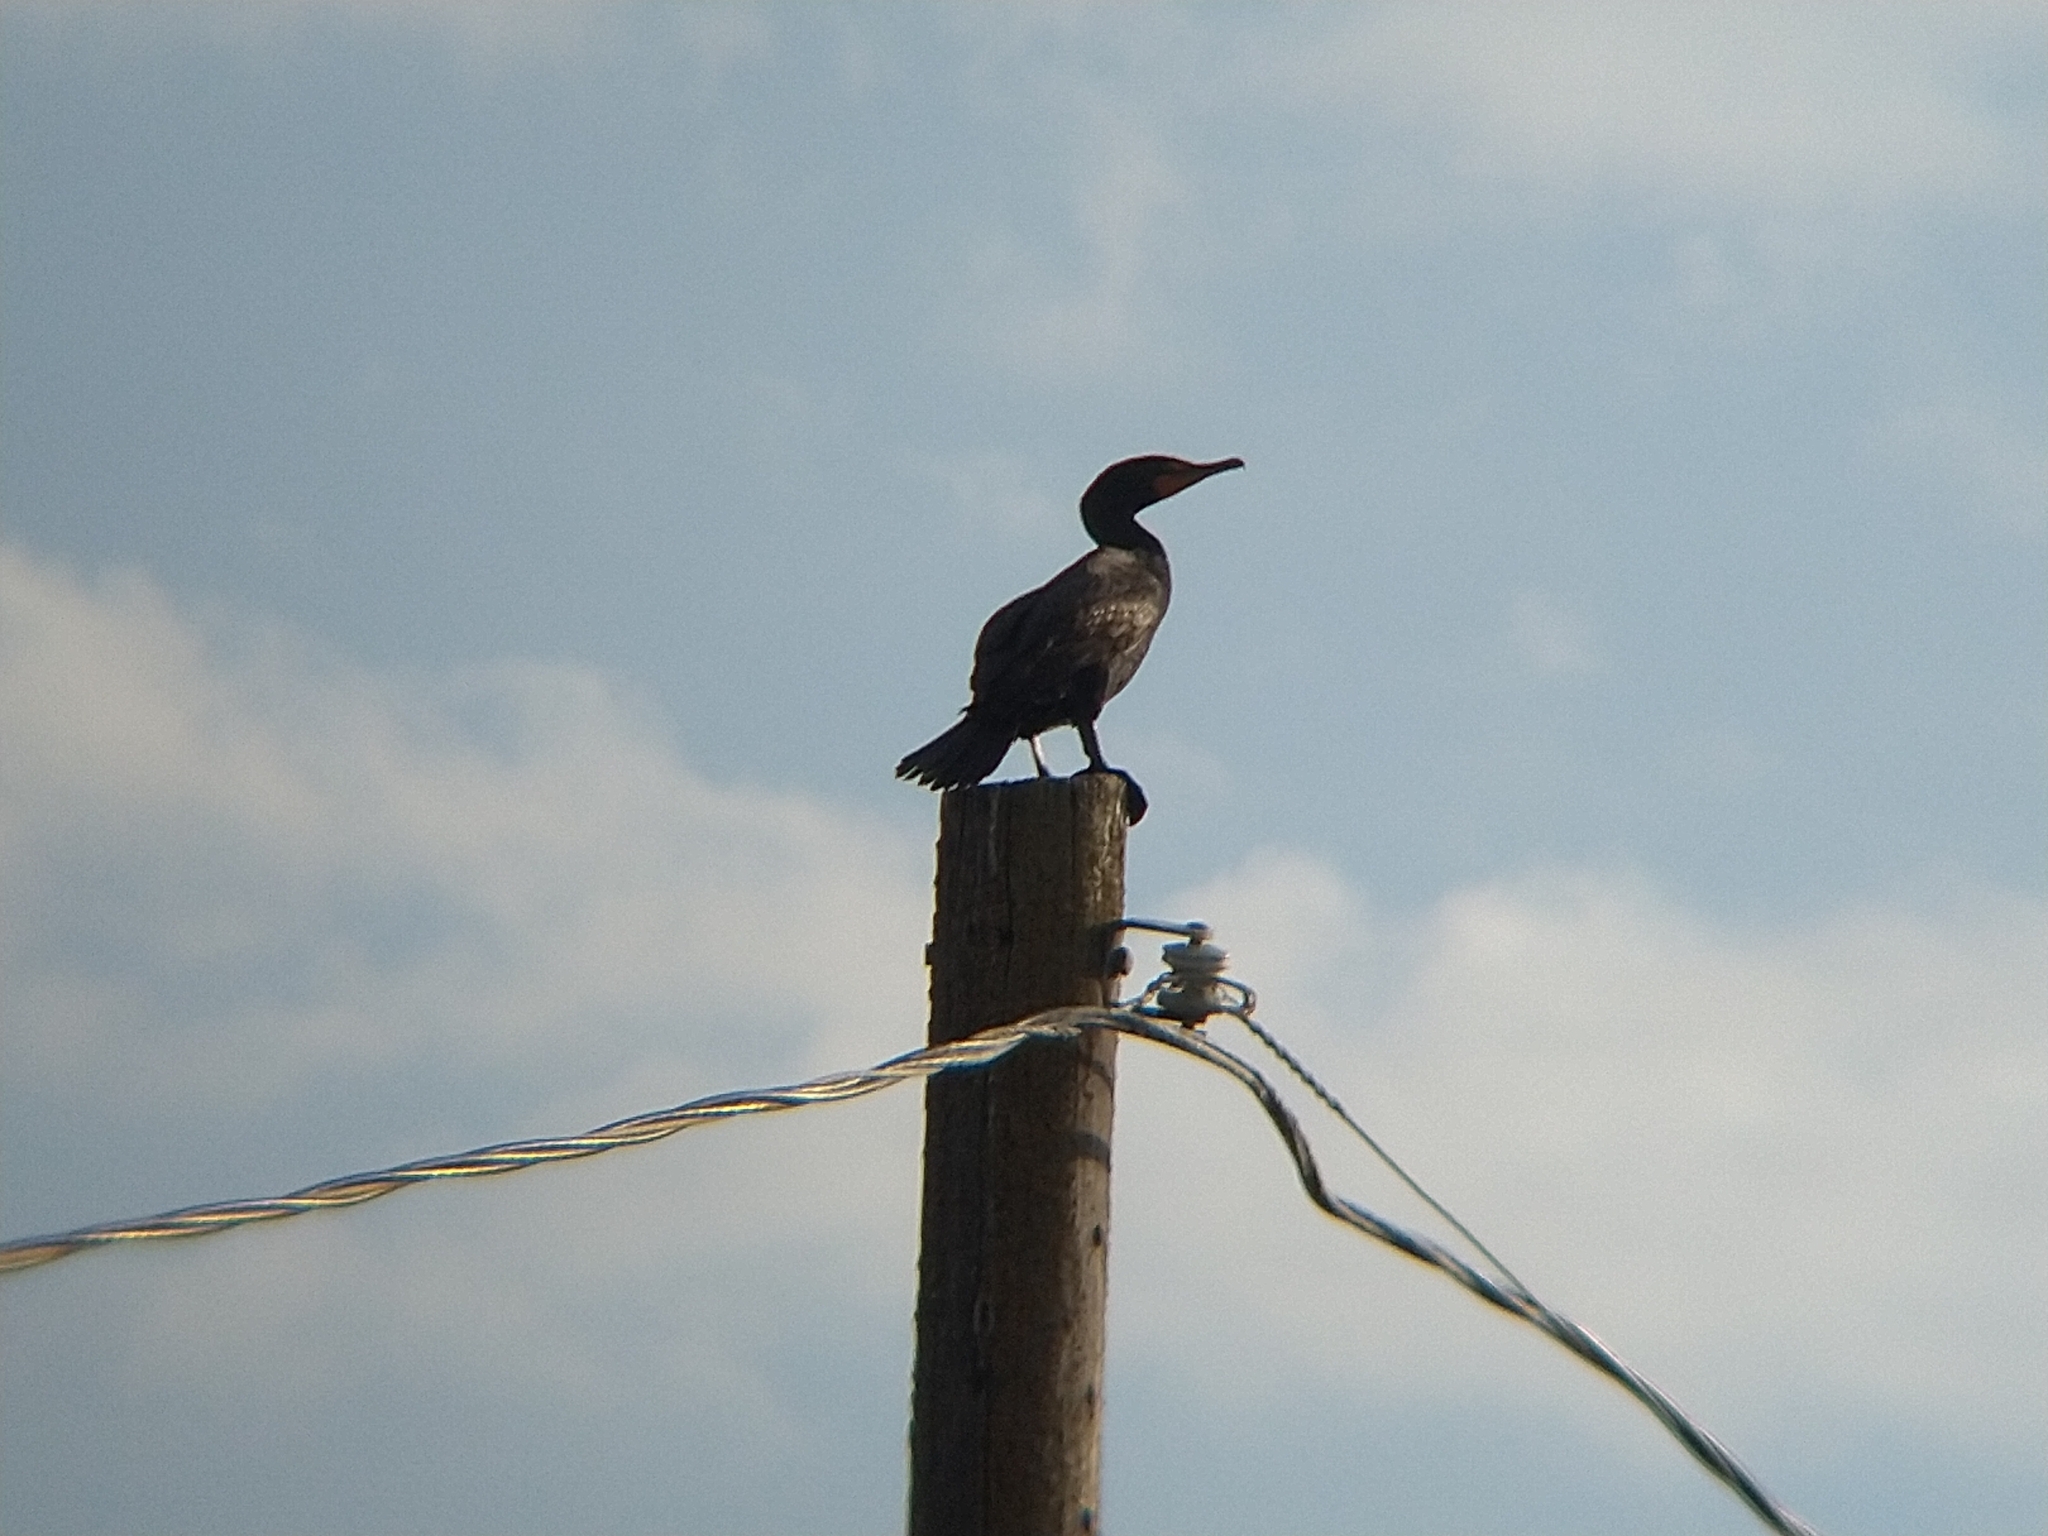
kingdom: Animalia
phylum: Chordata
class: Aves
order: Suliformes
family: Phalacrocoracidae
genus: Phalacrocorax
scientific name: Phalacrocorax auritus
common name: Double-crested cormorant
